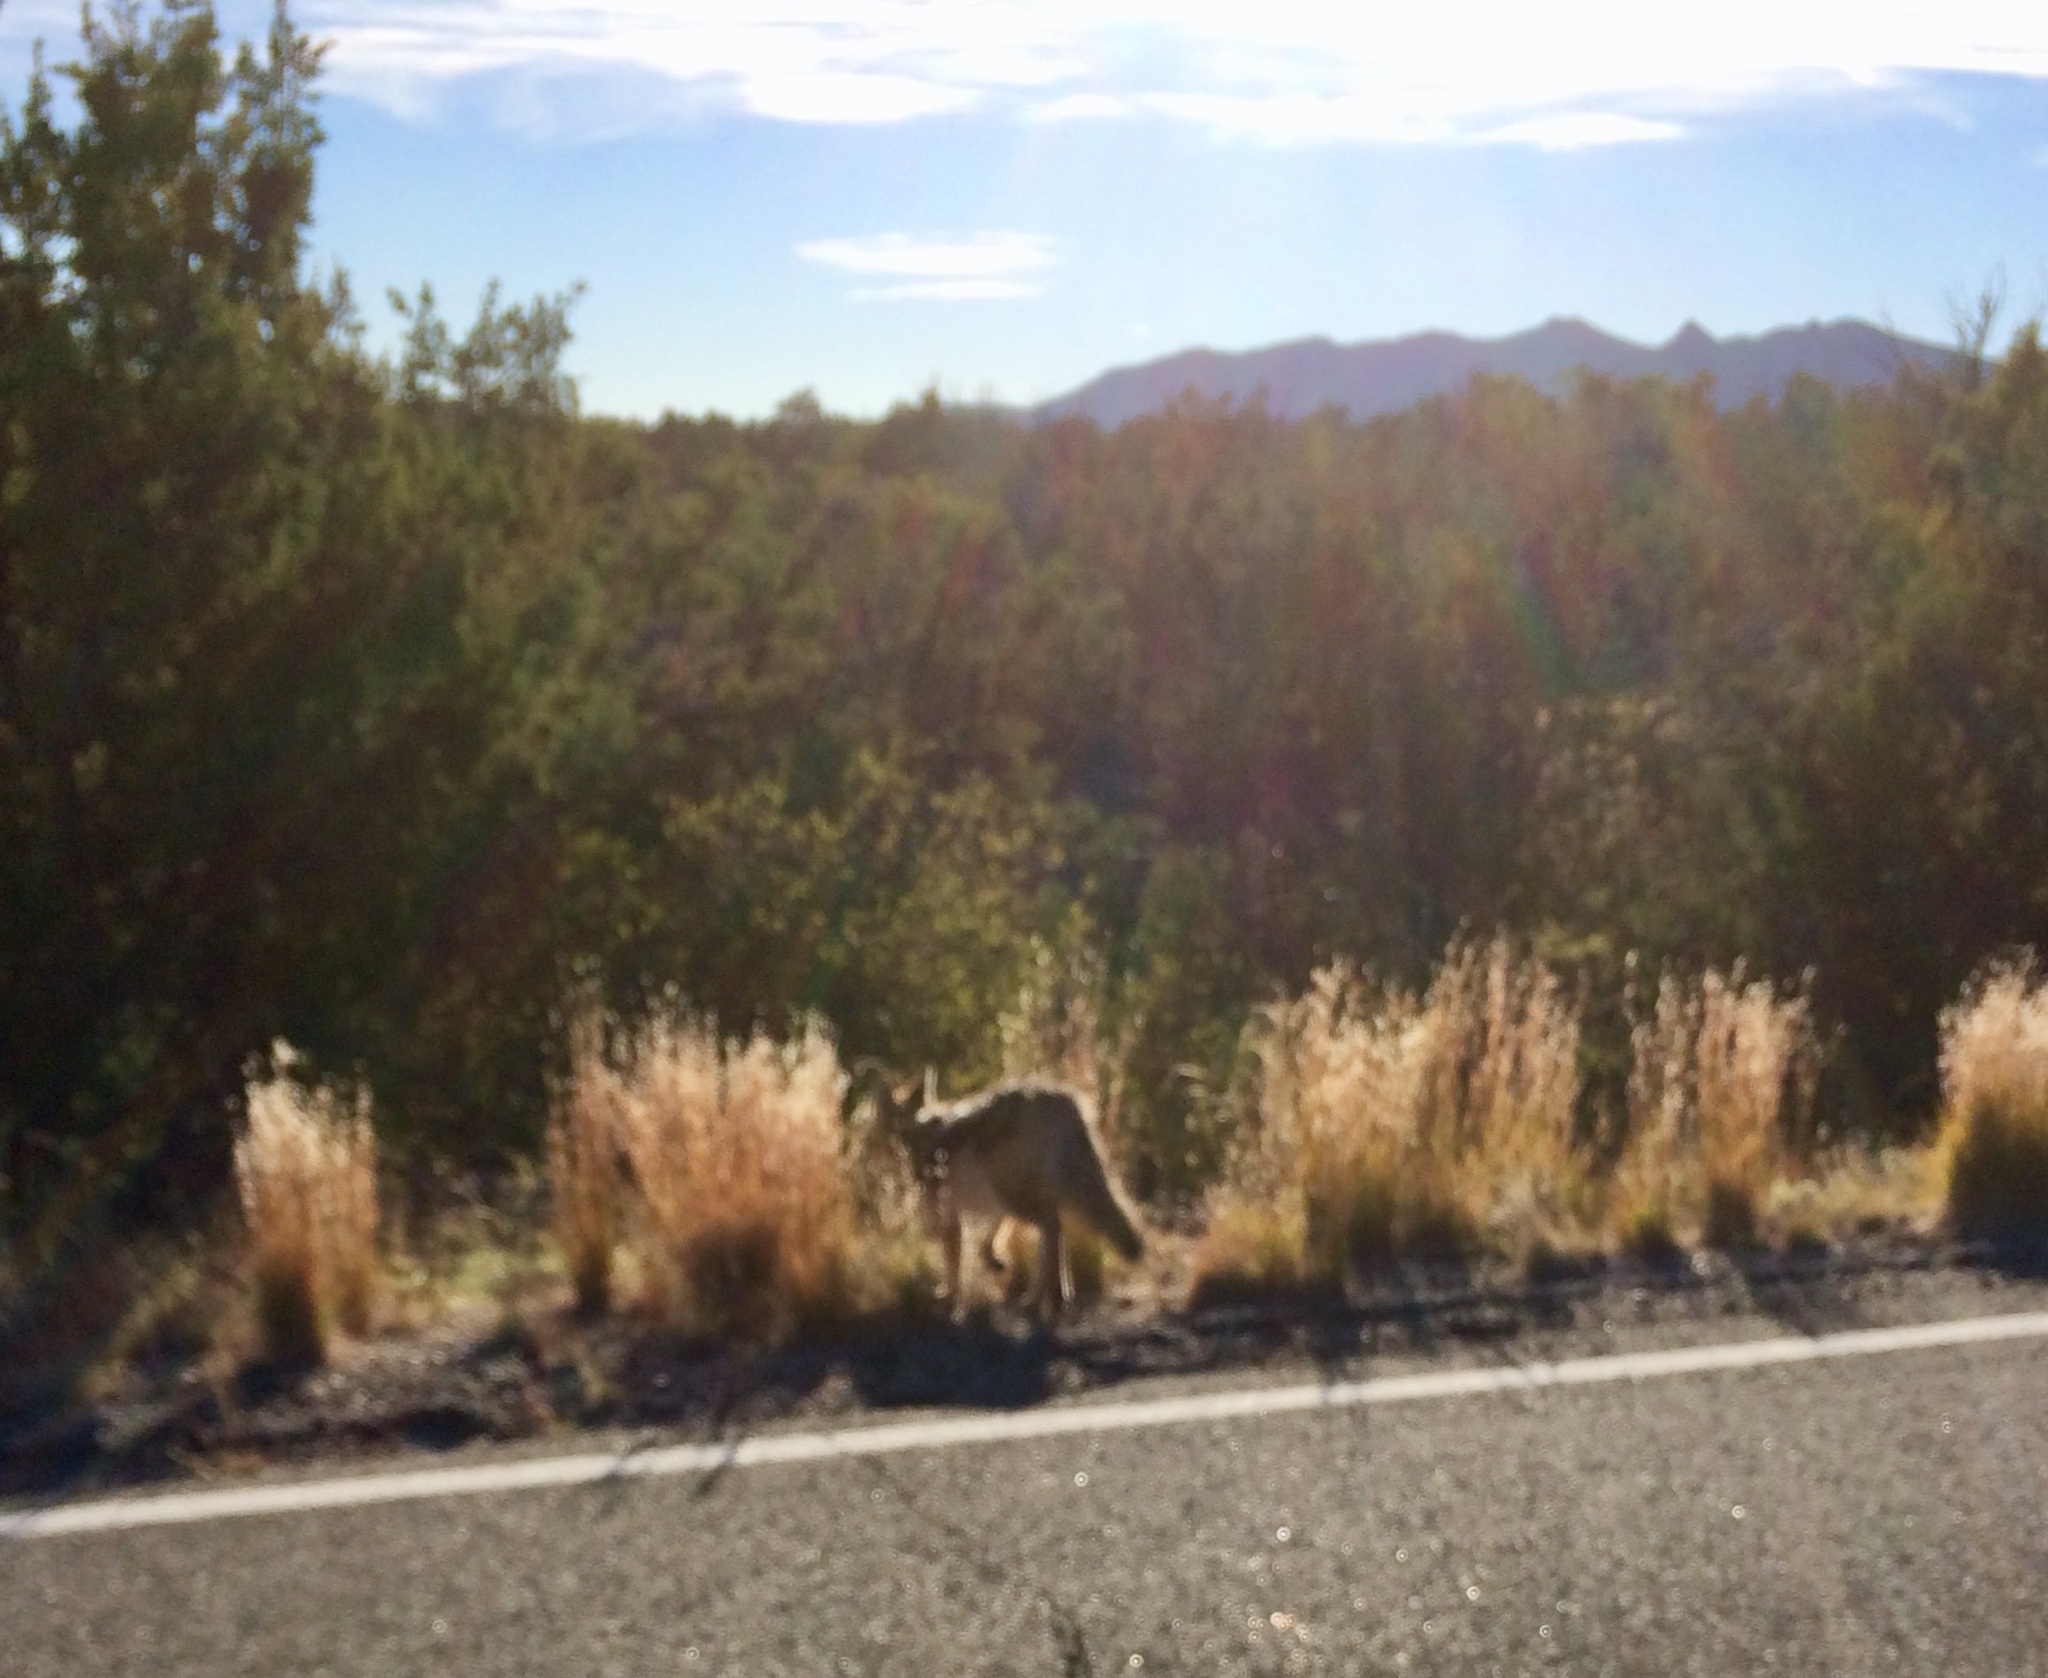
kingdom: Animalia
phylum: Chordata
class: Mammalia
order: Carnivora
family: Canidae
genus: Canis
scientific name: Canis latrans
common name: Coyote
